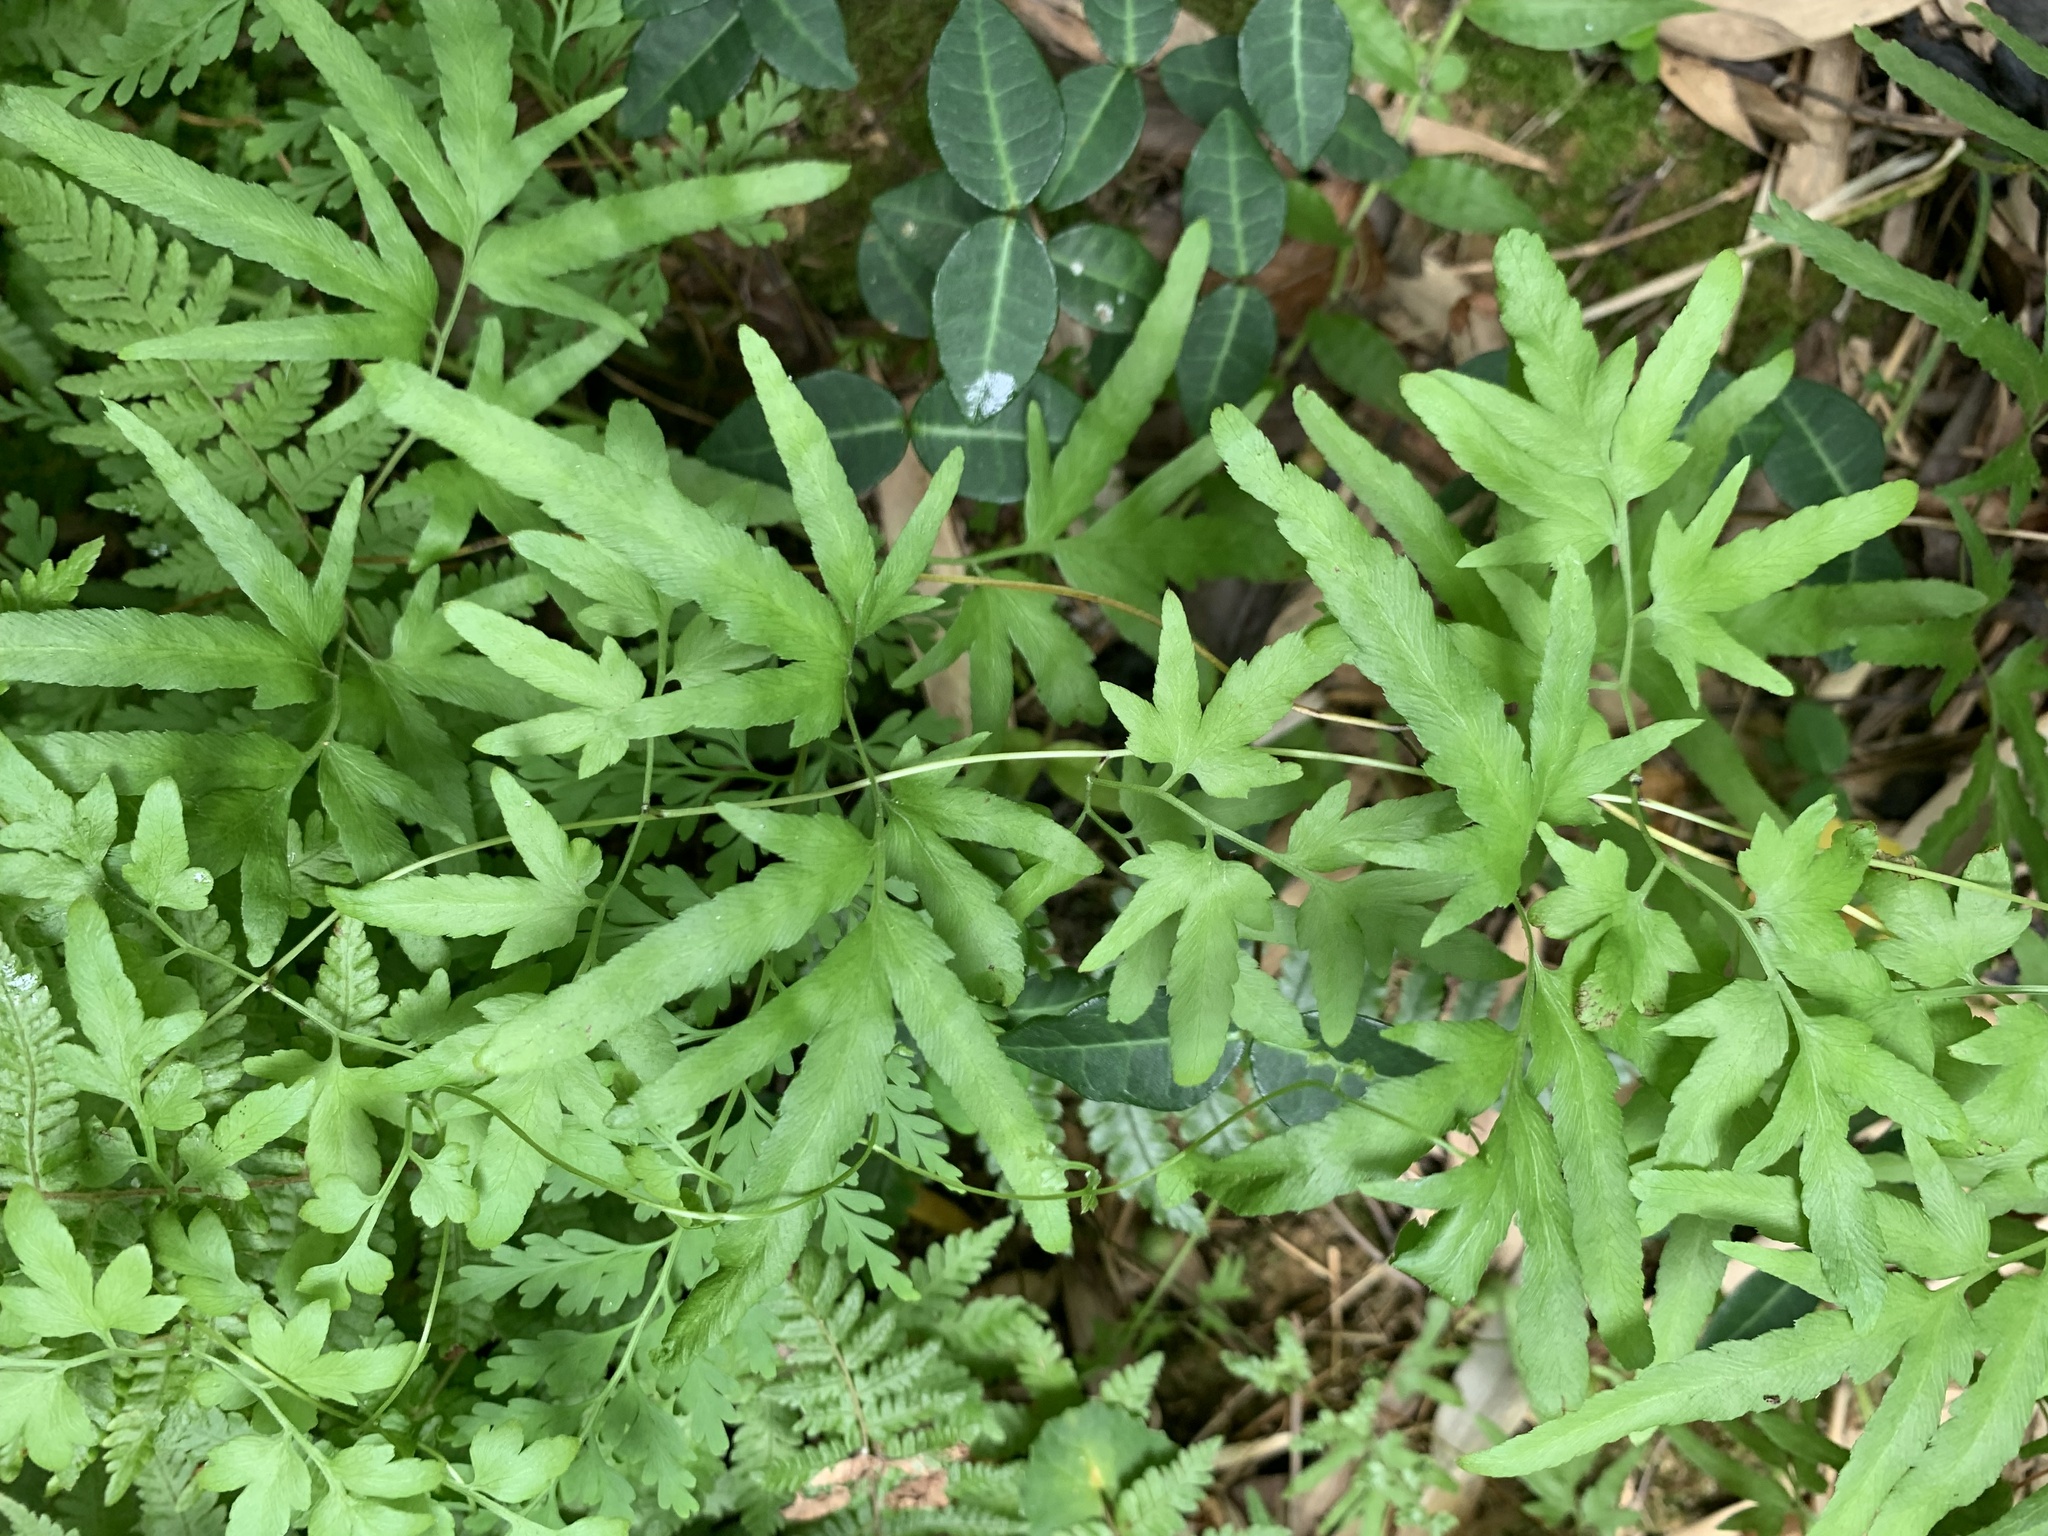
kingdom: Plantae
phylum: Tracheophyta
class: Polypodiopsida
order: Schizaeales
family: Lygodiaceae
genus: Lygodium
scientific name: Lygodium japonicum
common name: Japanese climbing fern
